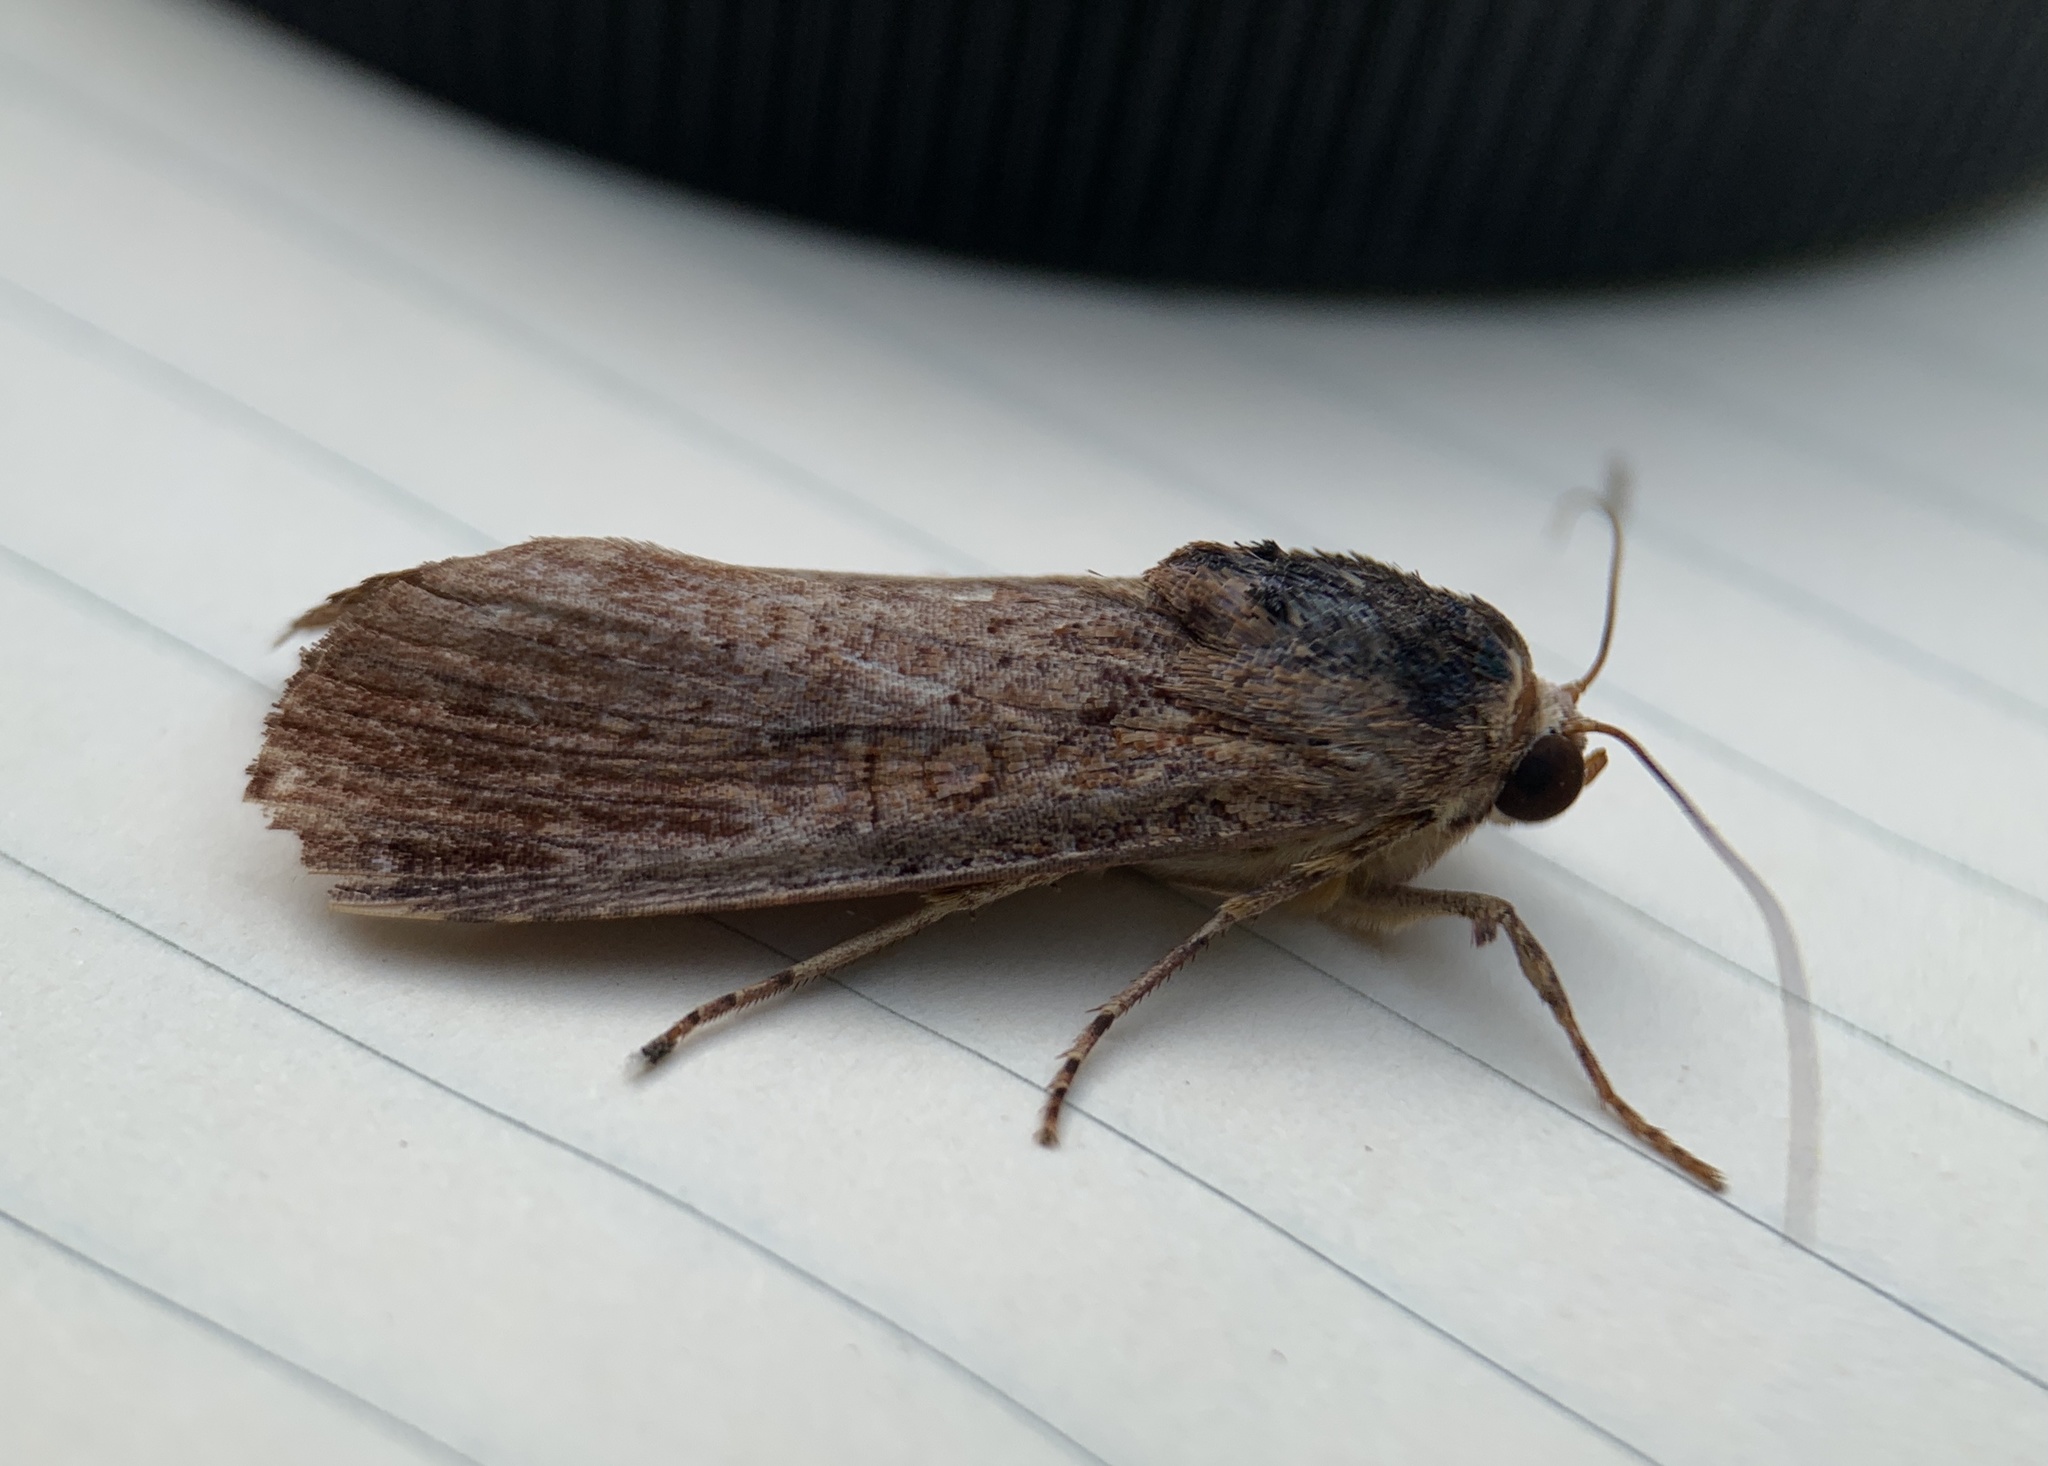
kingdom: Animalia
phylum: Arthropoda
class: Insecta
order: Lepidoptera
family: Noctuidae
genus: Magusa
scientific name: Magusa divaricata
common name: Orb narrow-winged moth
